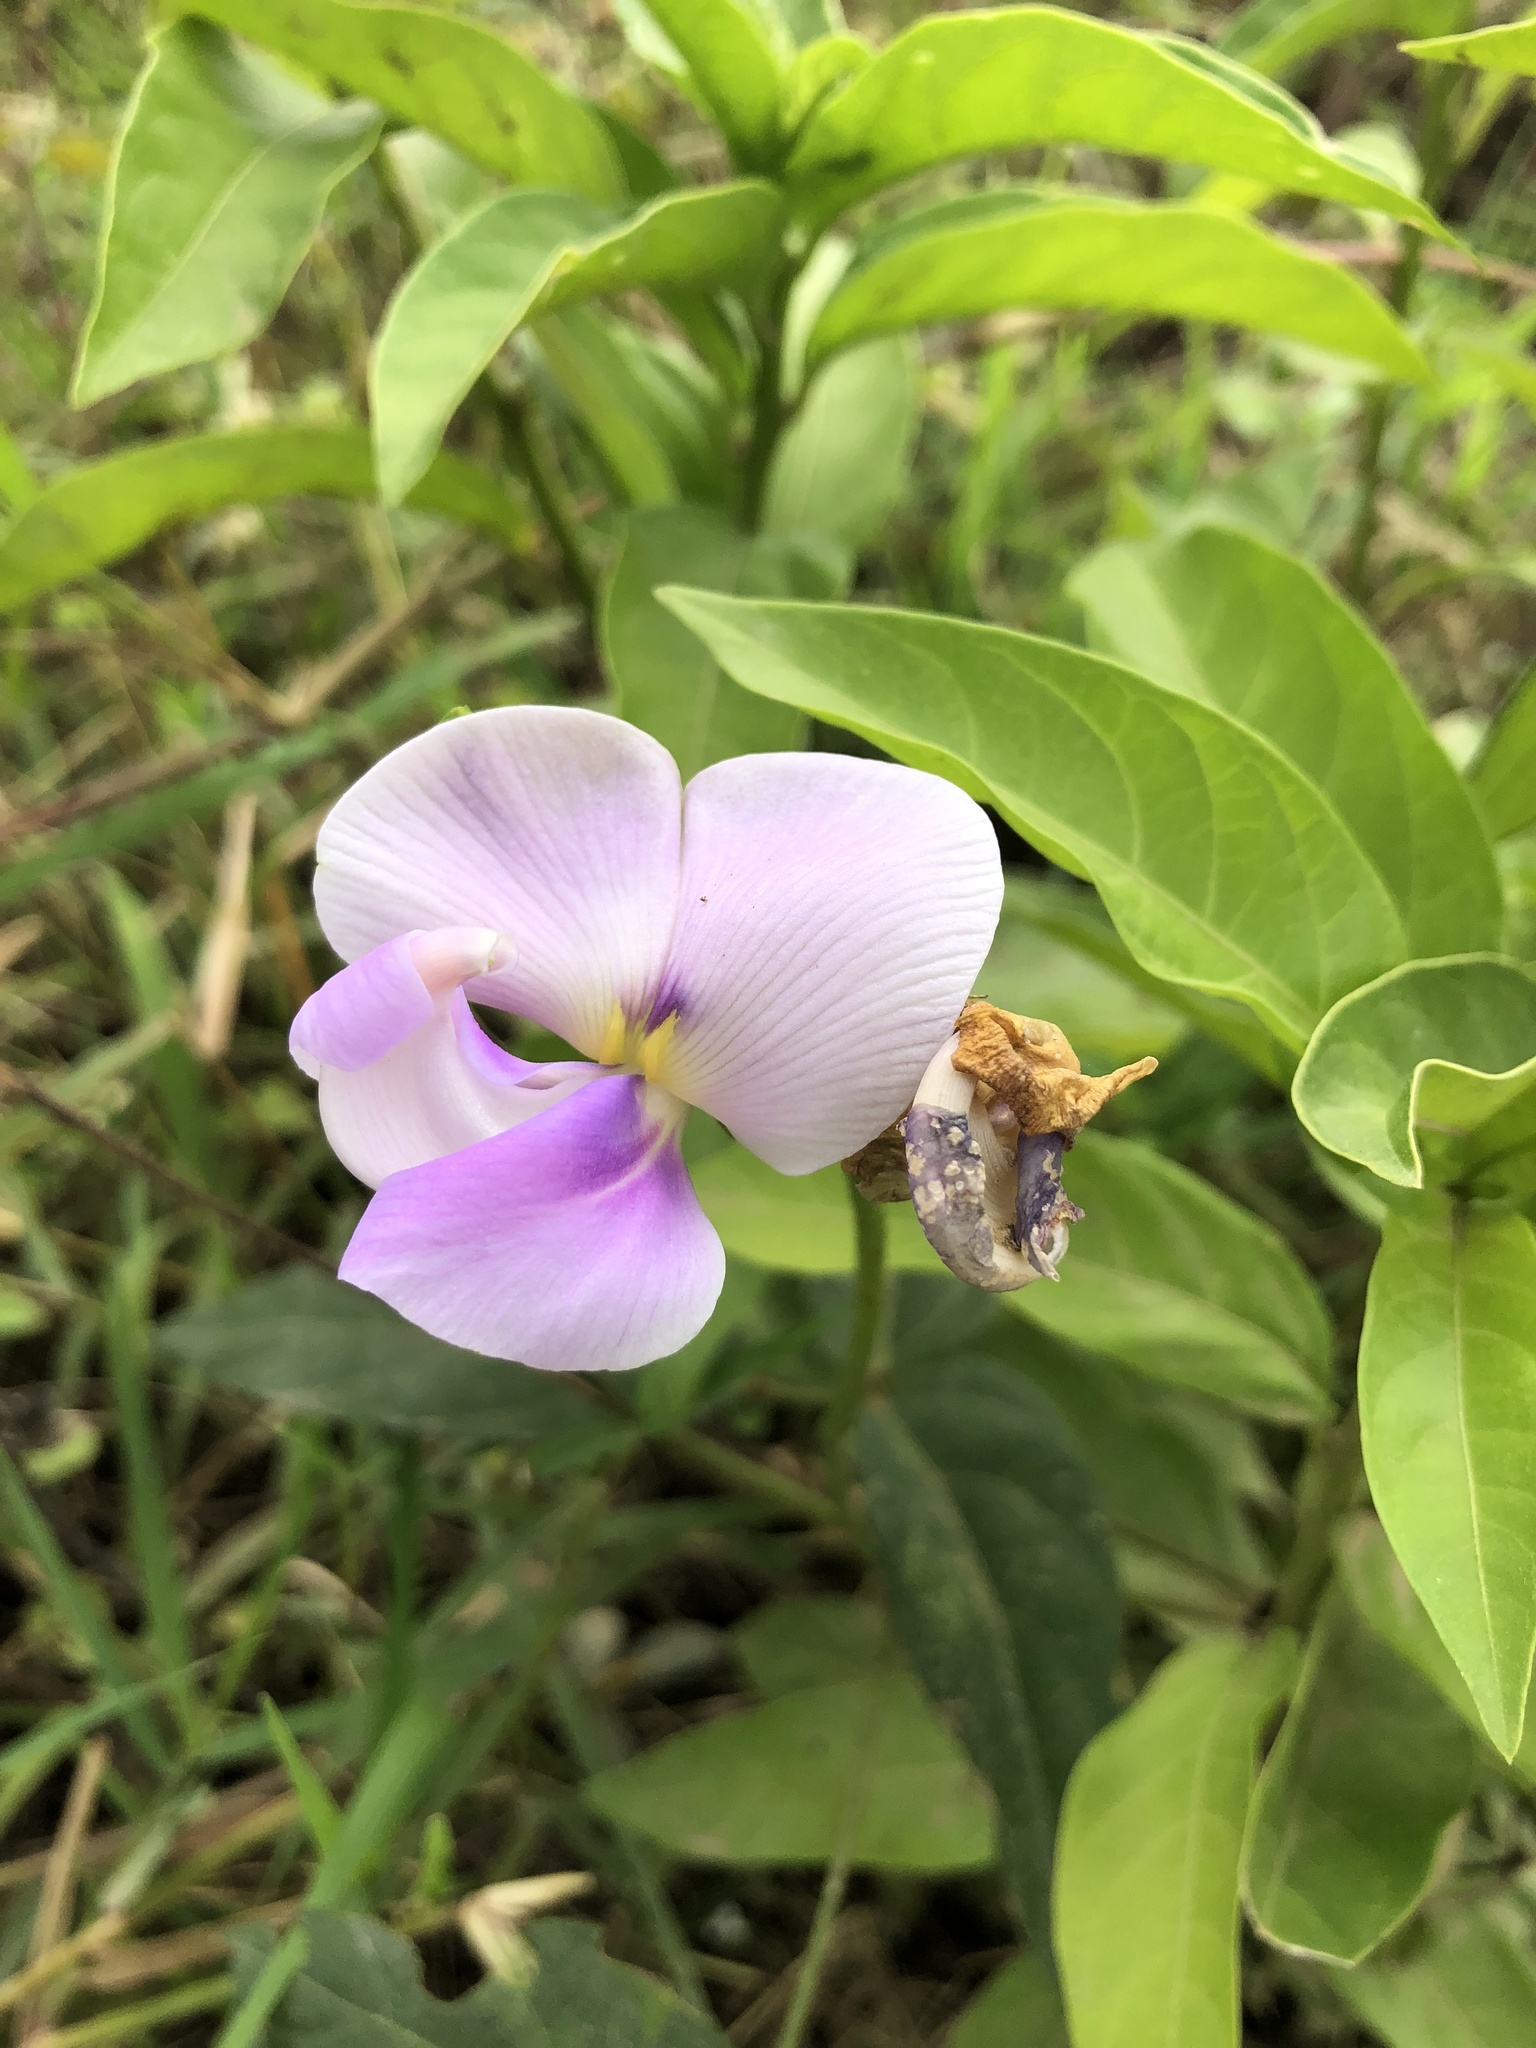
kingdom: Plantae
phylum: Tracheophyta
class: Magnoliopsida
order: Fabales
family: Fabaceae
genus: Leptospron
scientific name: Leptospron adenanthum
